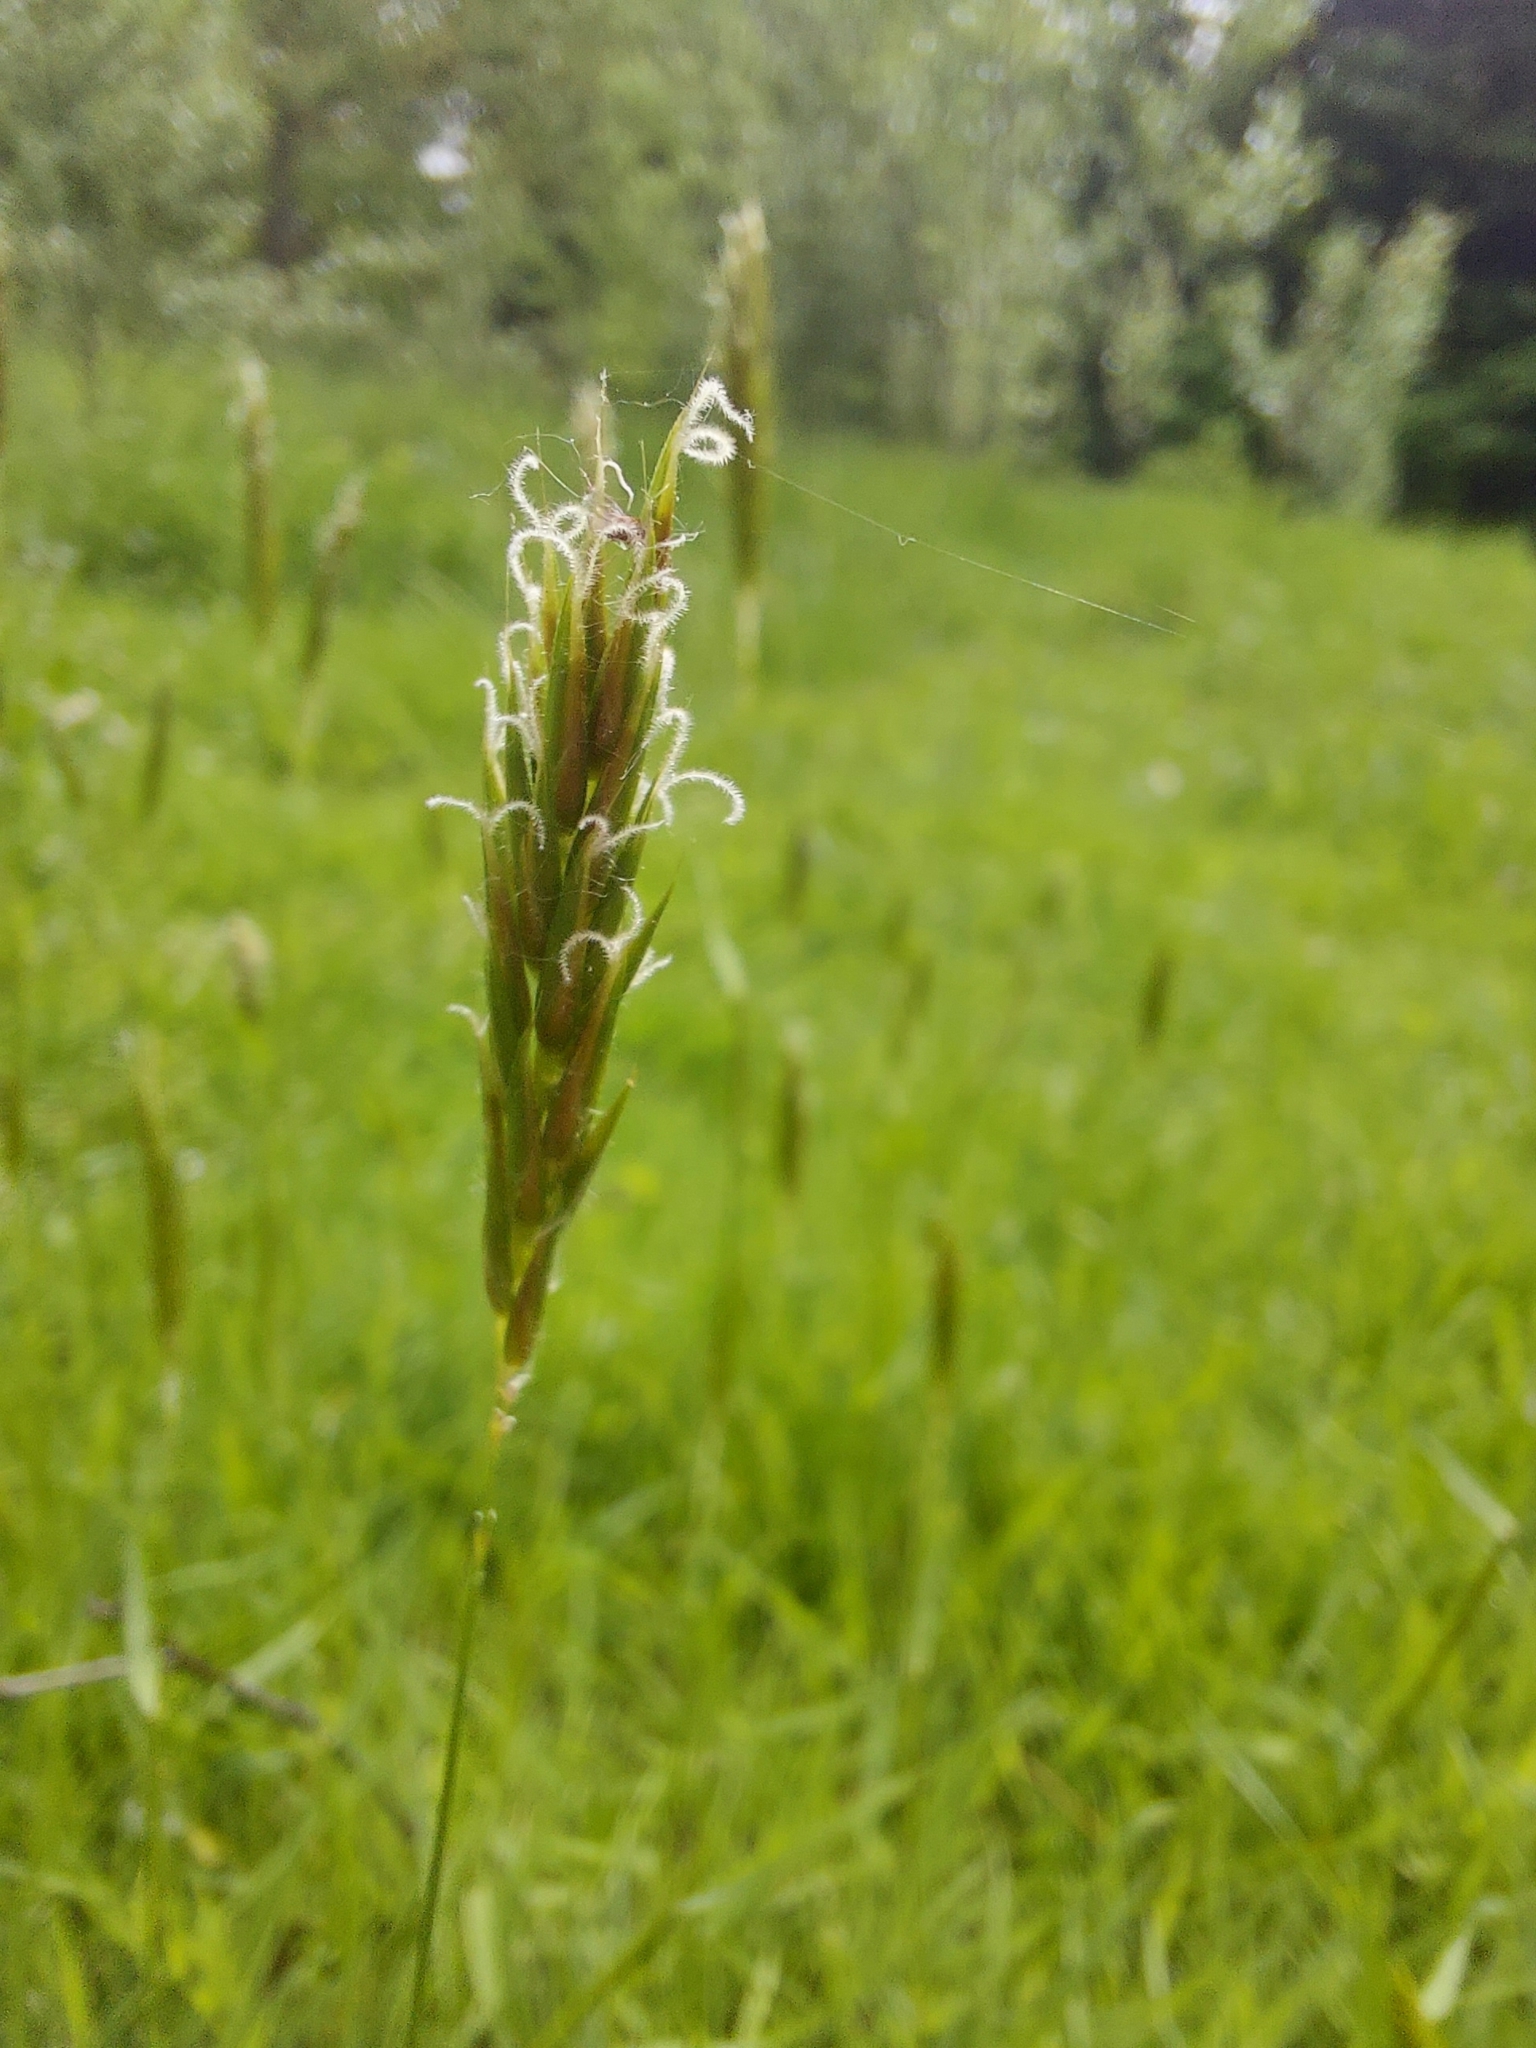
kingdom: Plantae
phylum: Tracheophyta
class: Liliopsida
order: Poales
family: Poaceae
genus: Anthoxanthum
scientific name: Anthoxanthum odoratum
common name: Sweet vernalgrass
